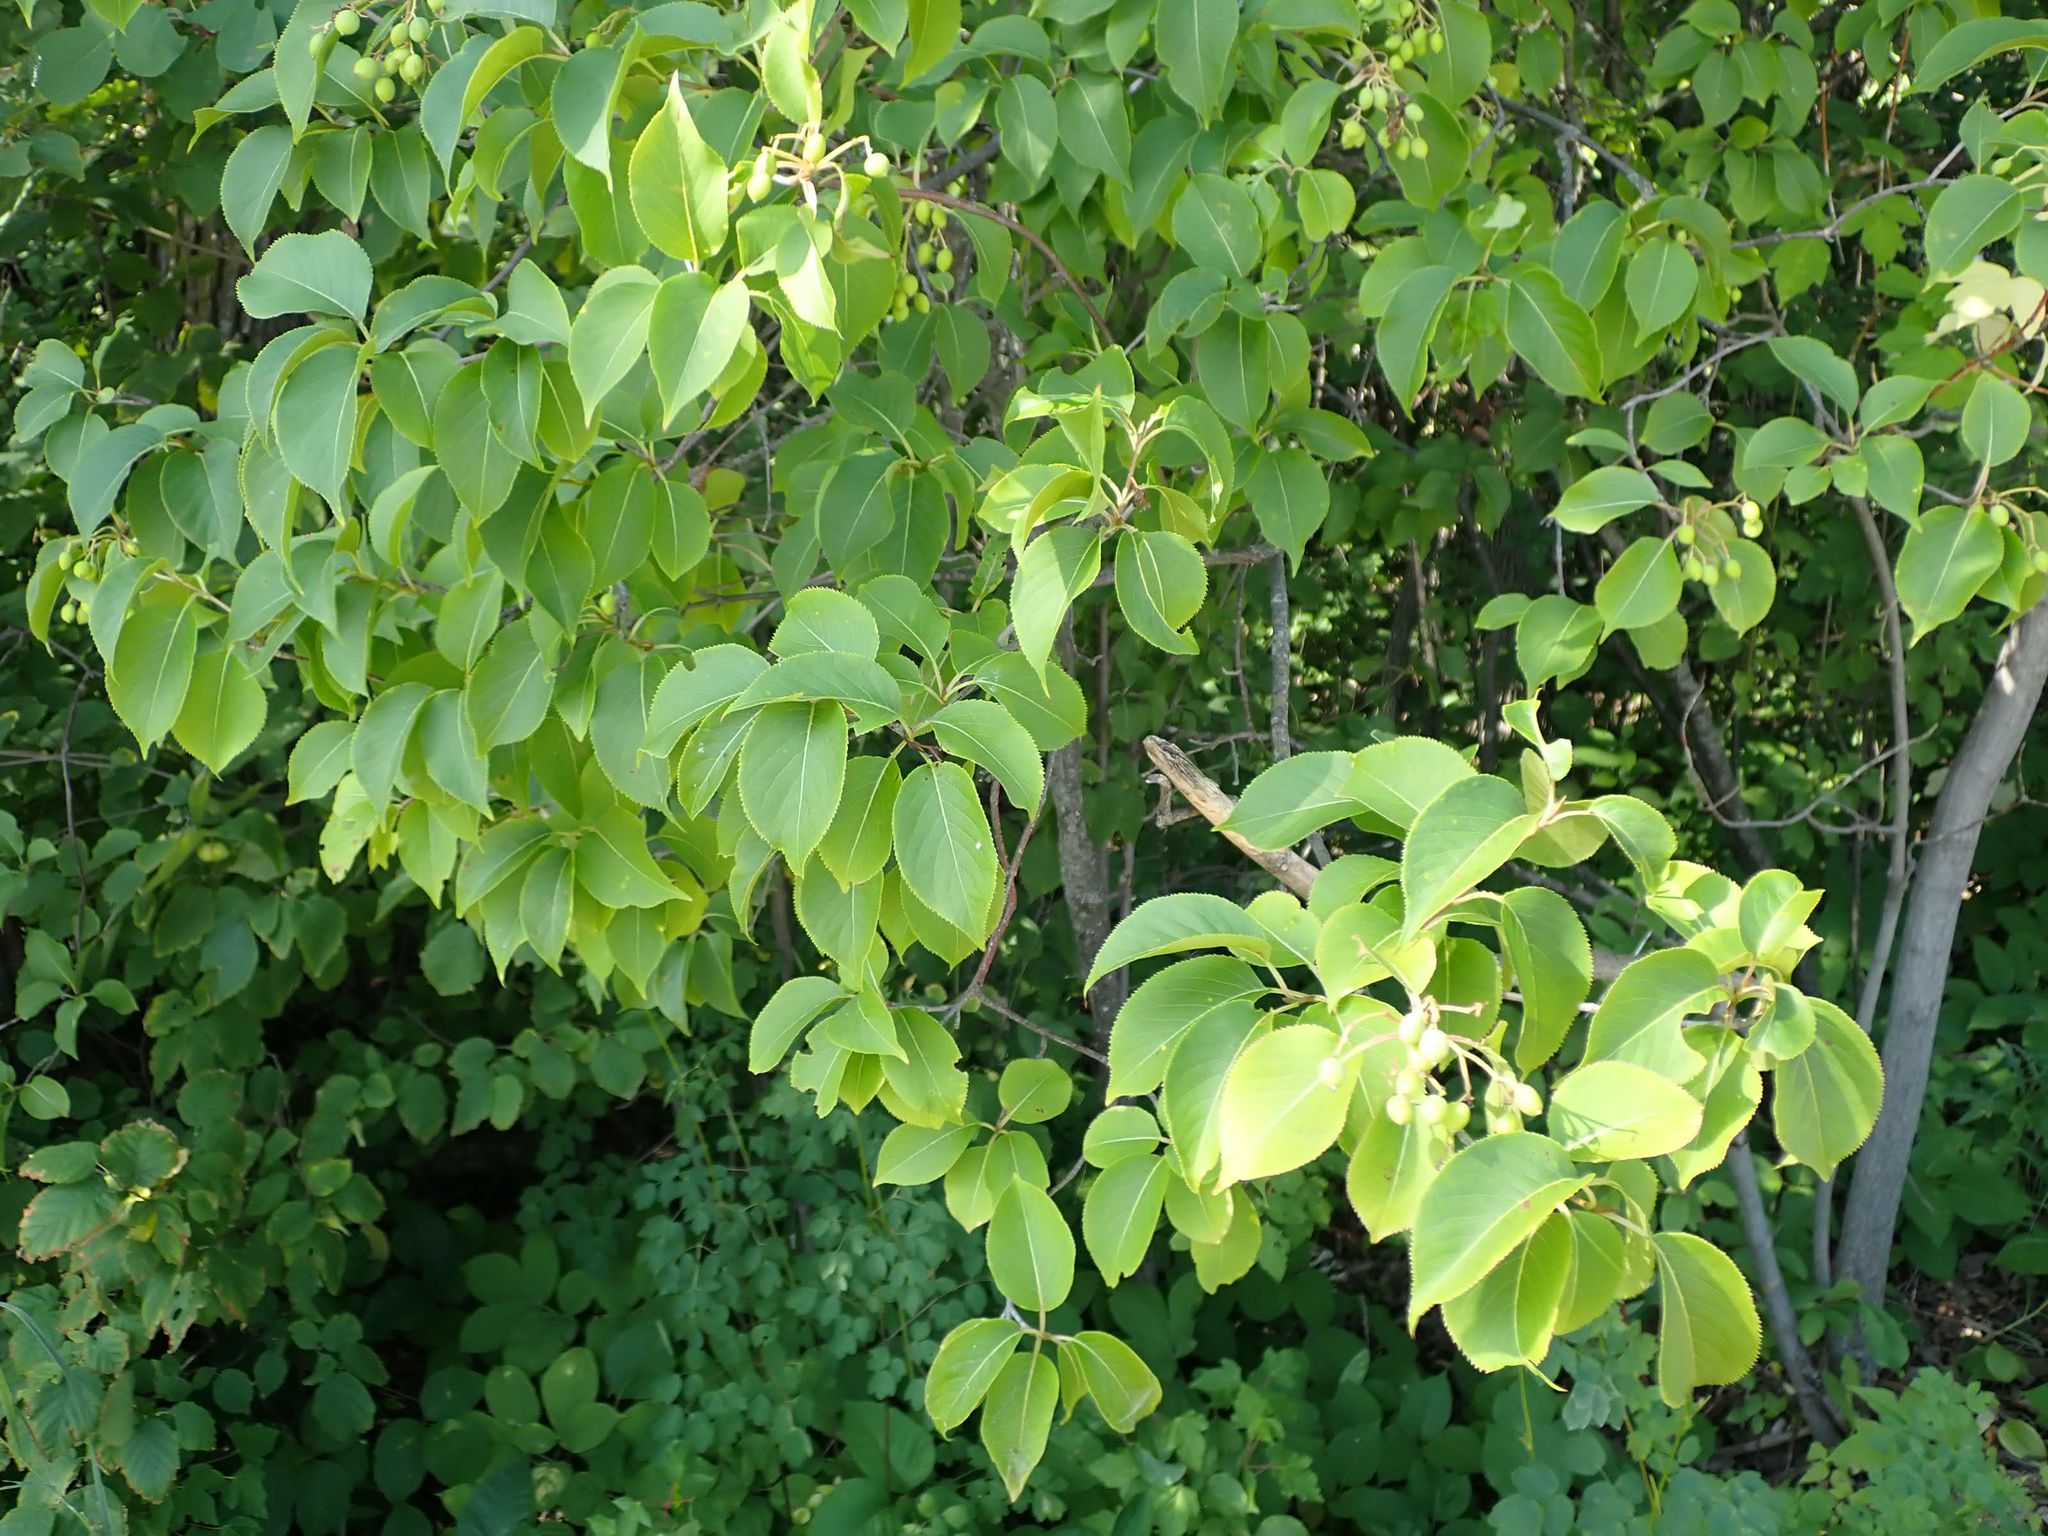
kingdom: Plantae
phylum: Tracheophyta
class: Magnoliopsida
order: Dipsacales
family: Viburnaceae
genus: Viburnum
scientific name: Viburnum lentago
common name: Black haw
